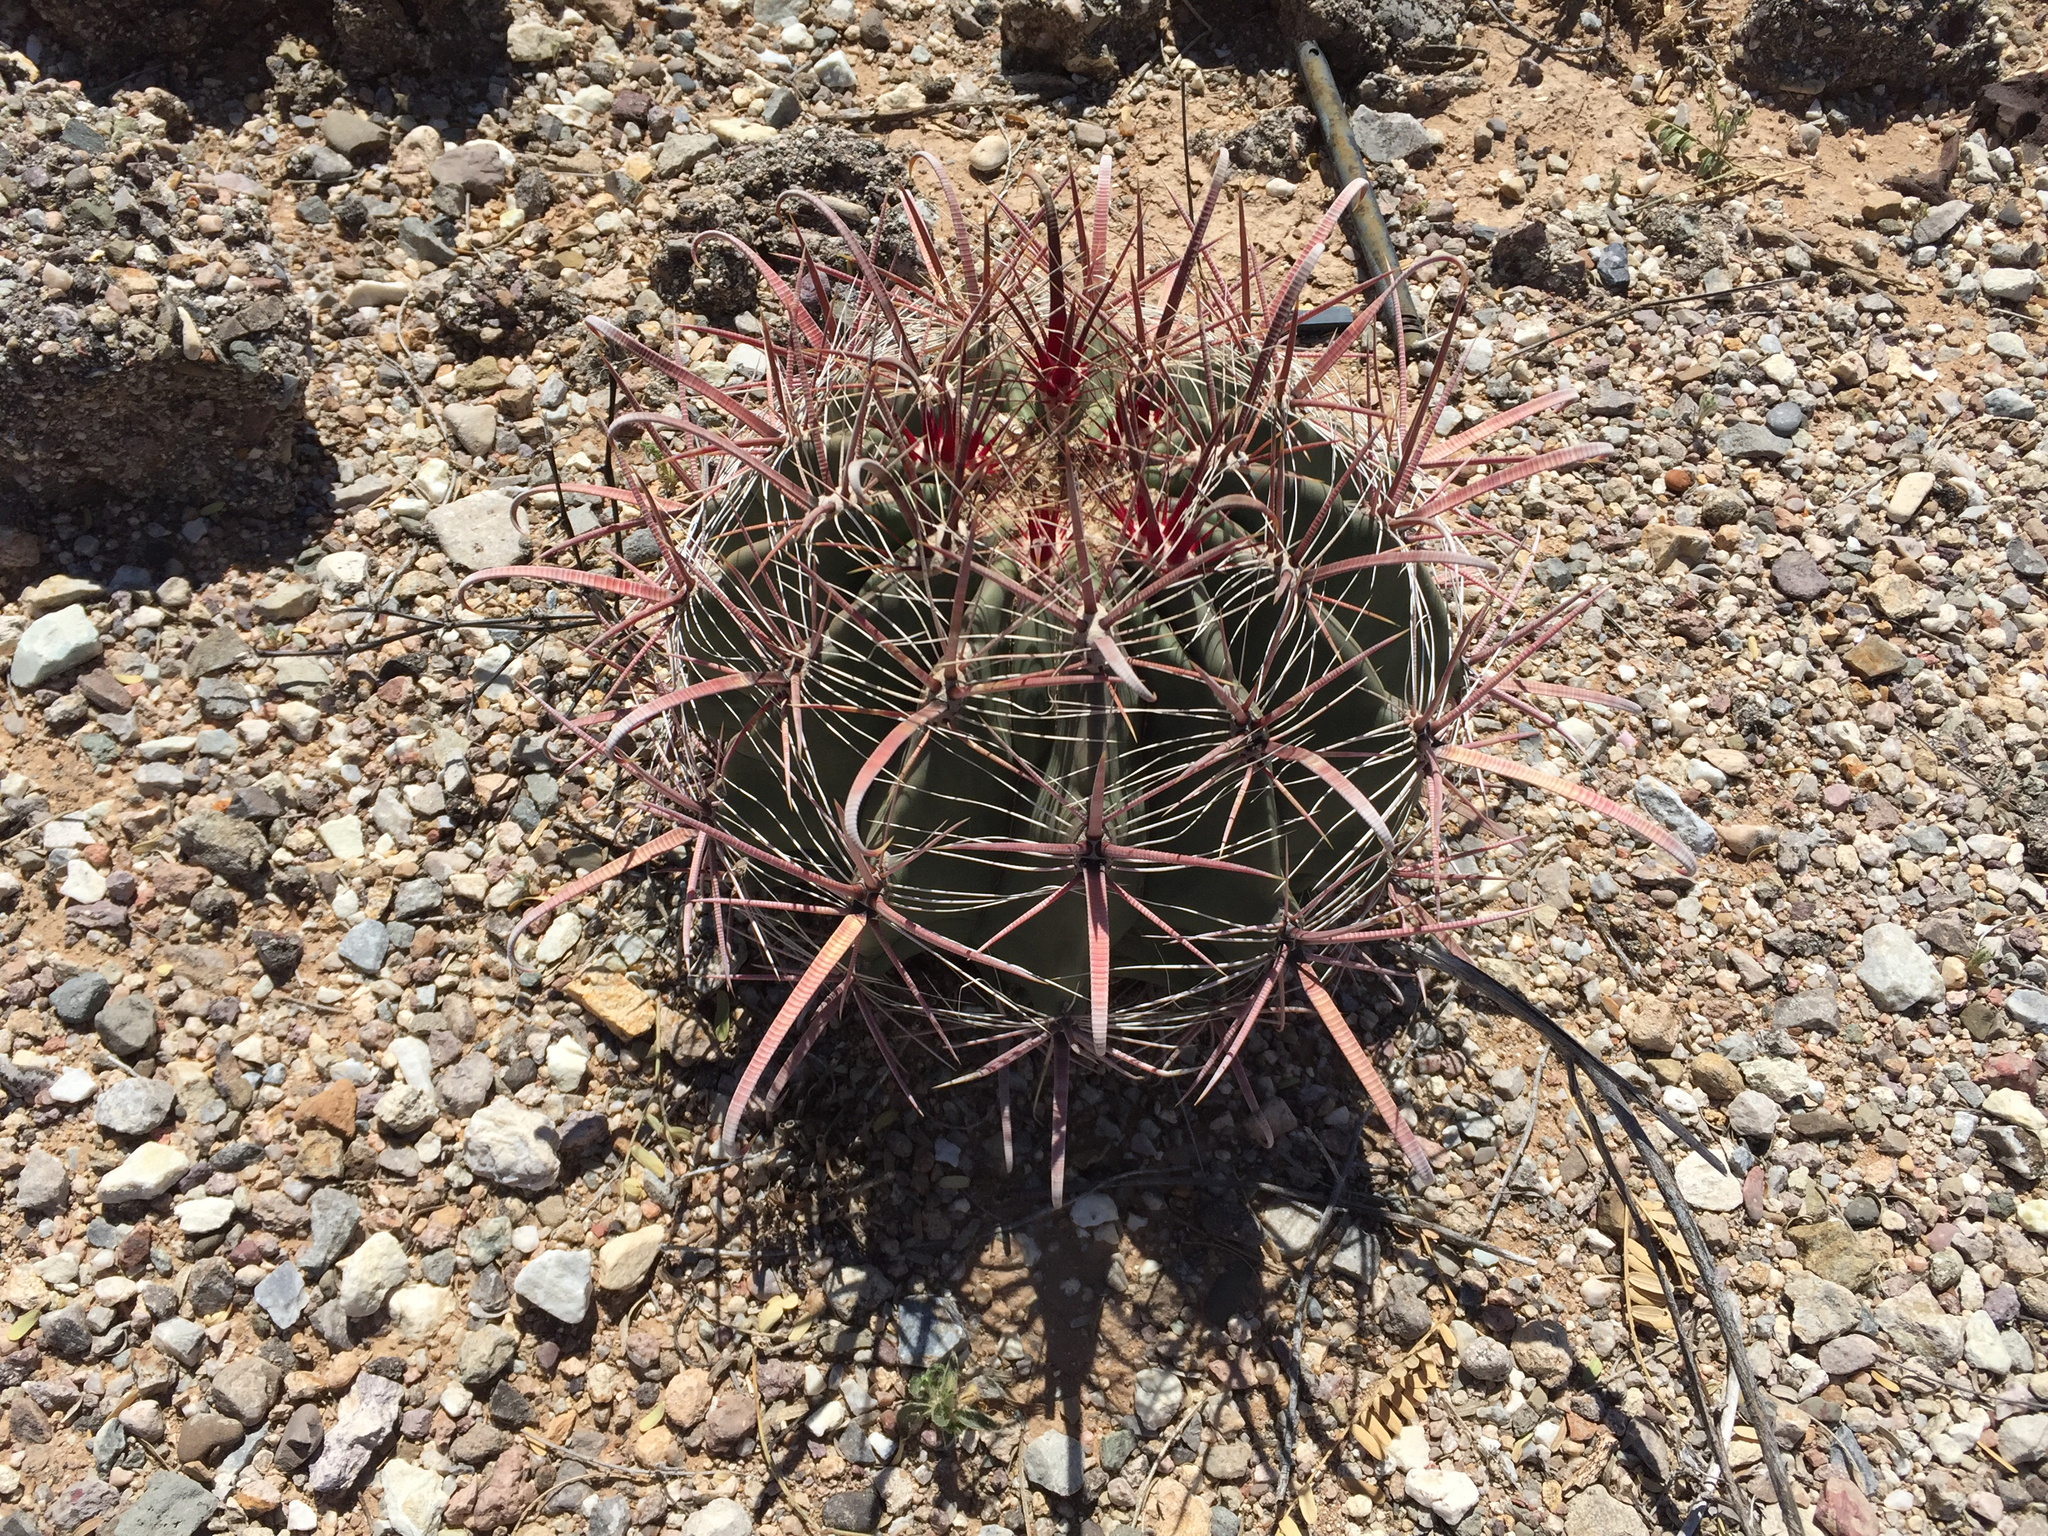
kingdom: Plantae
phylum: Tracheophyta
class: Magnoliopsida
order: Caryophyllales
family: Cactaceae
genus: Ferocactus
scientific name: Ferocactus wislizeni
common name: Candy barrel cactus
